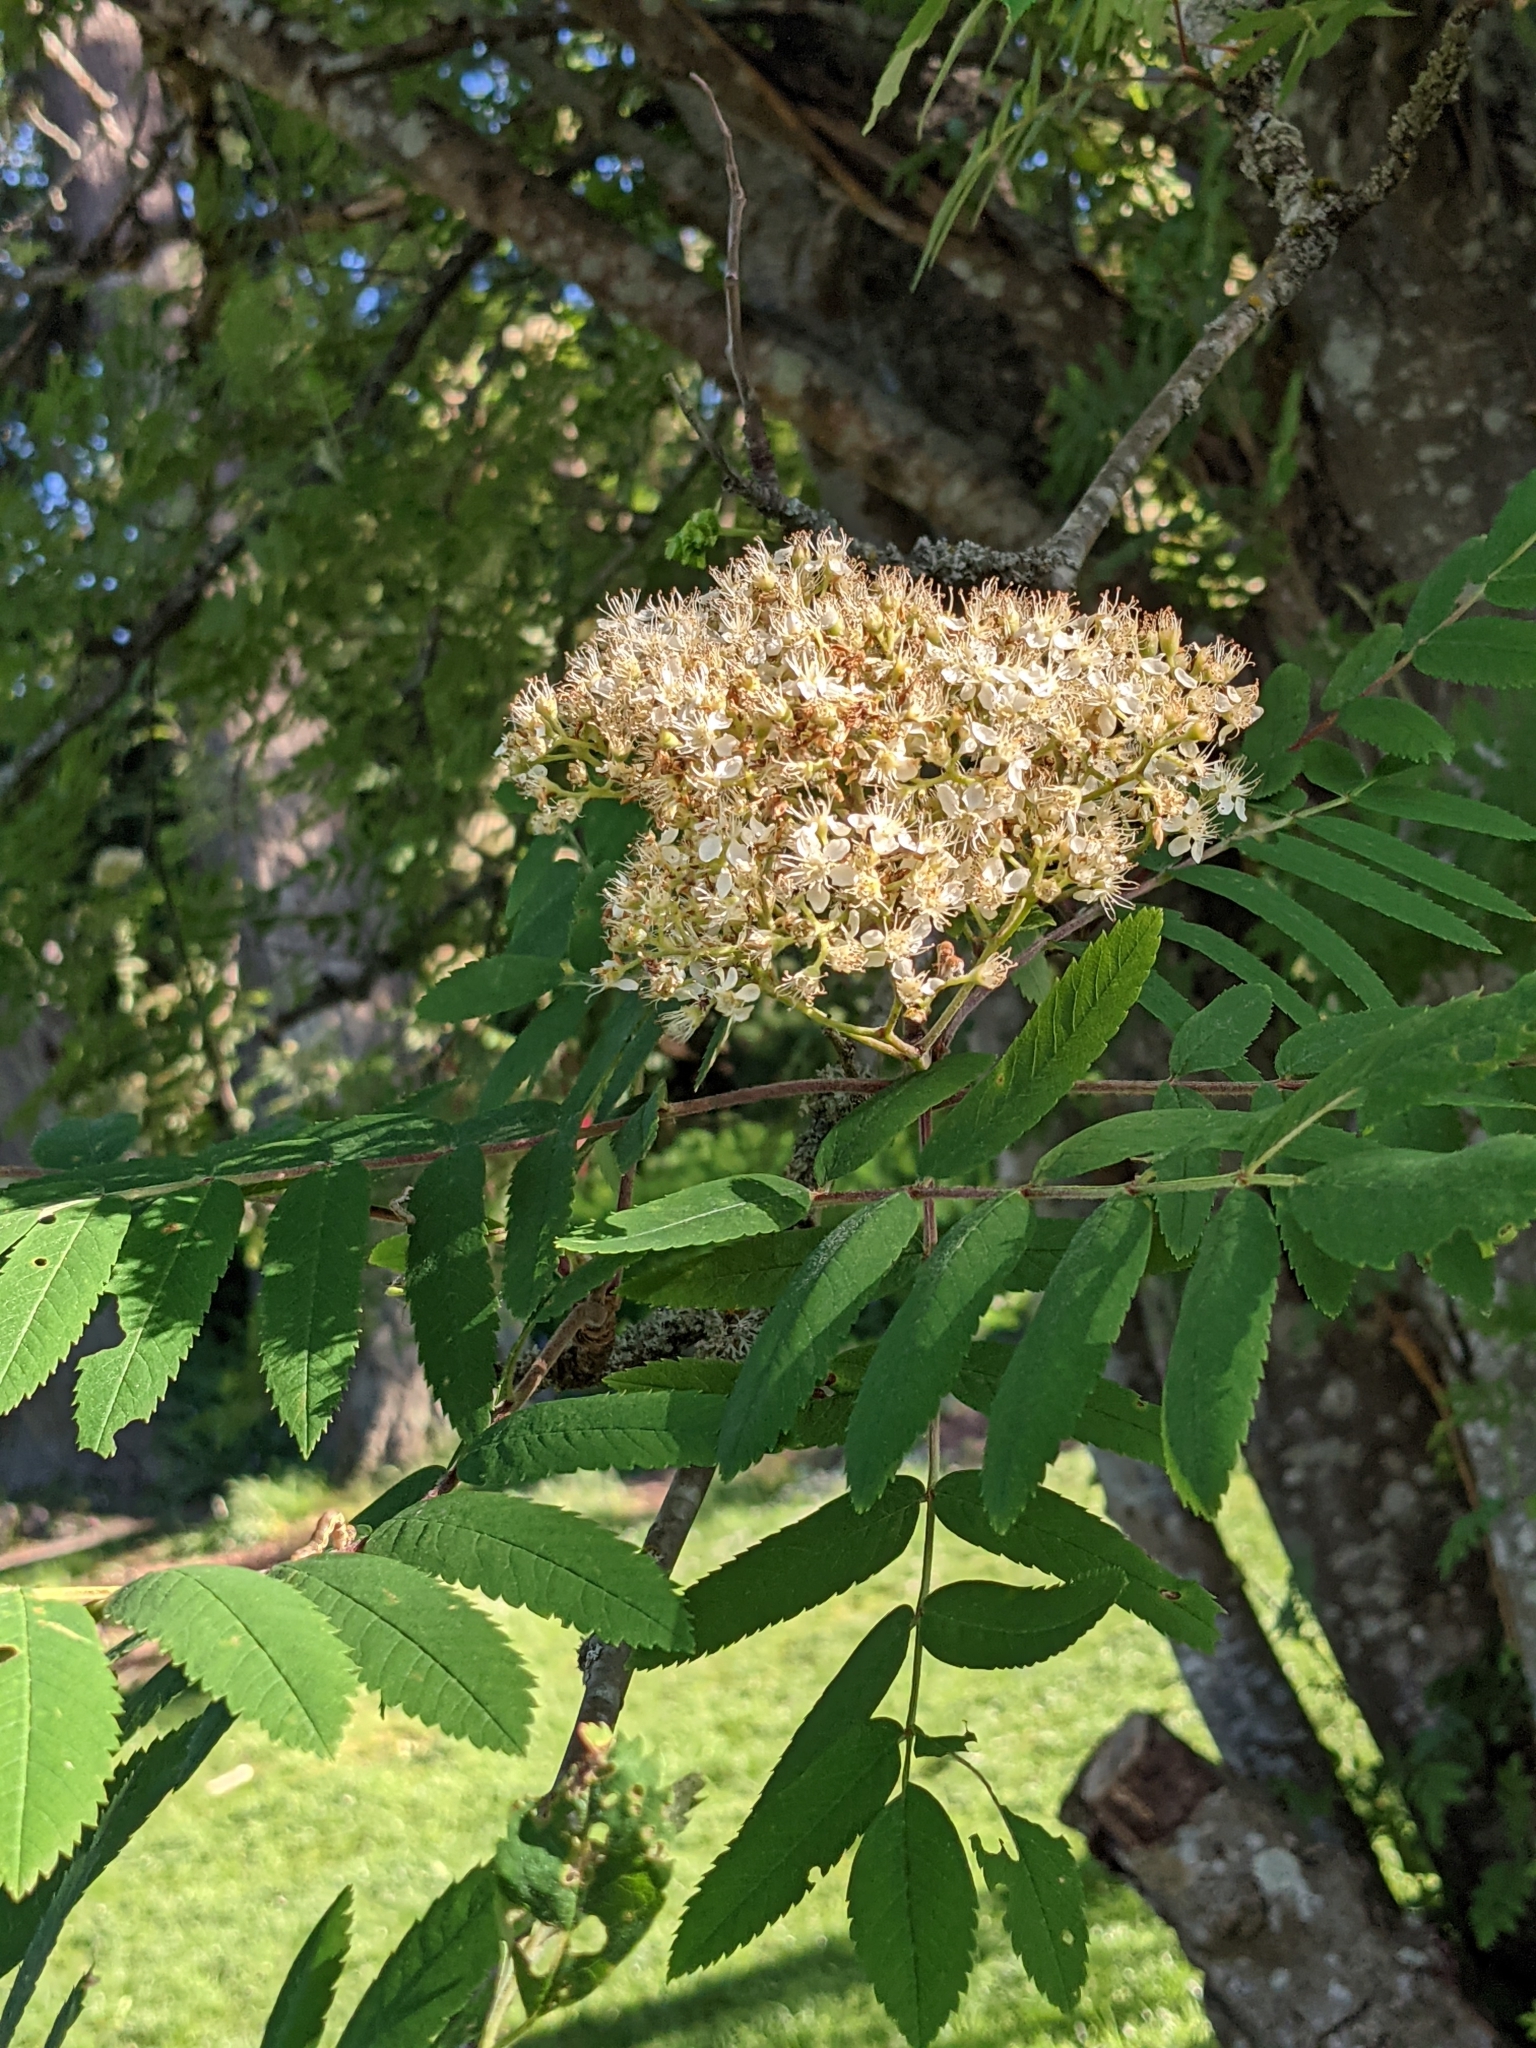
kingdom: Plantae
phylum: Tracheophyta
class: Magnoliopsida
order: Rosales
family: Rosaceae
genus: Sorbus
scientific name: Sorbus aucuparia
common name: Rowan
